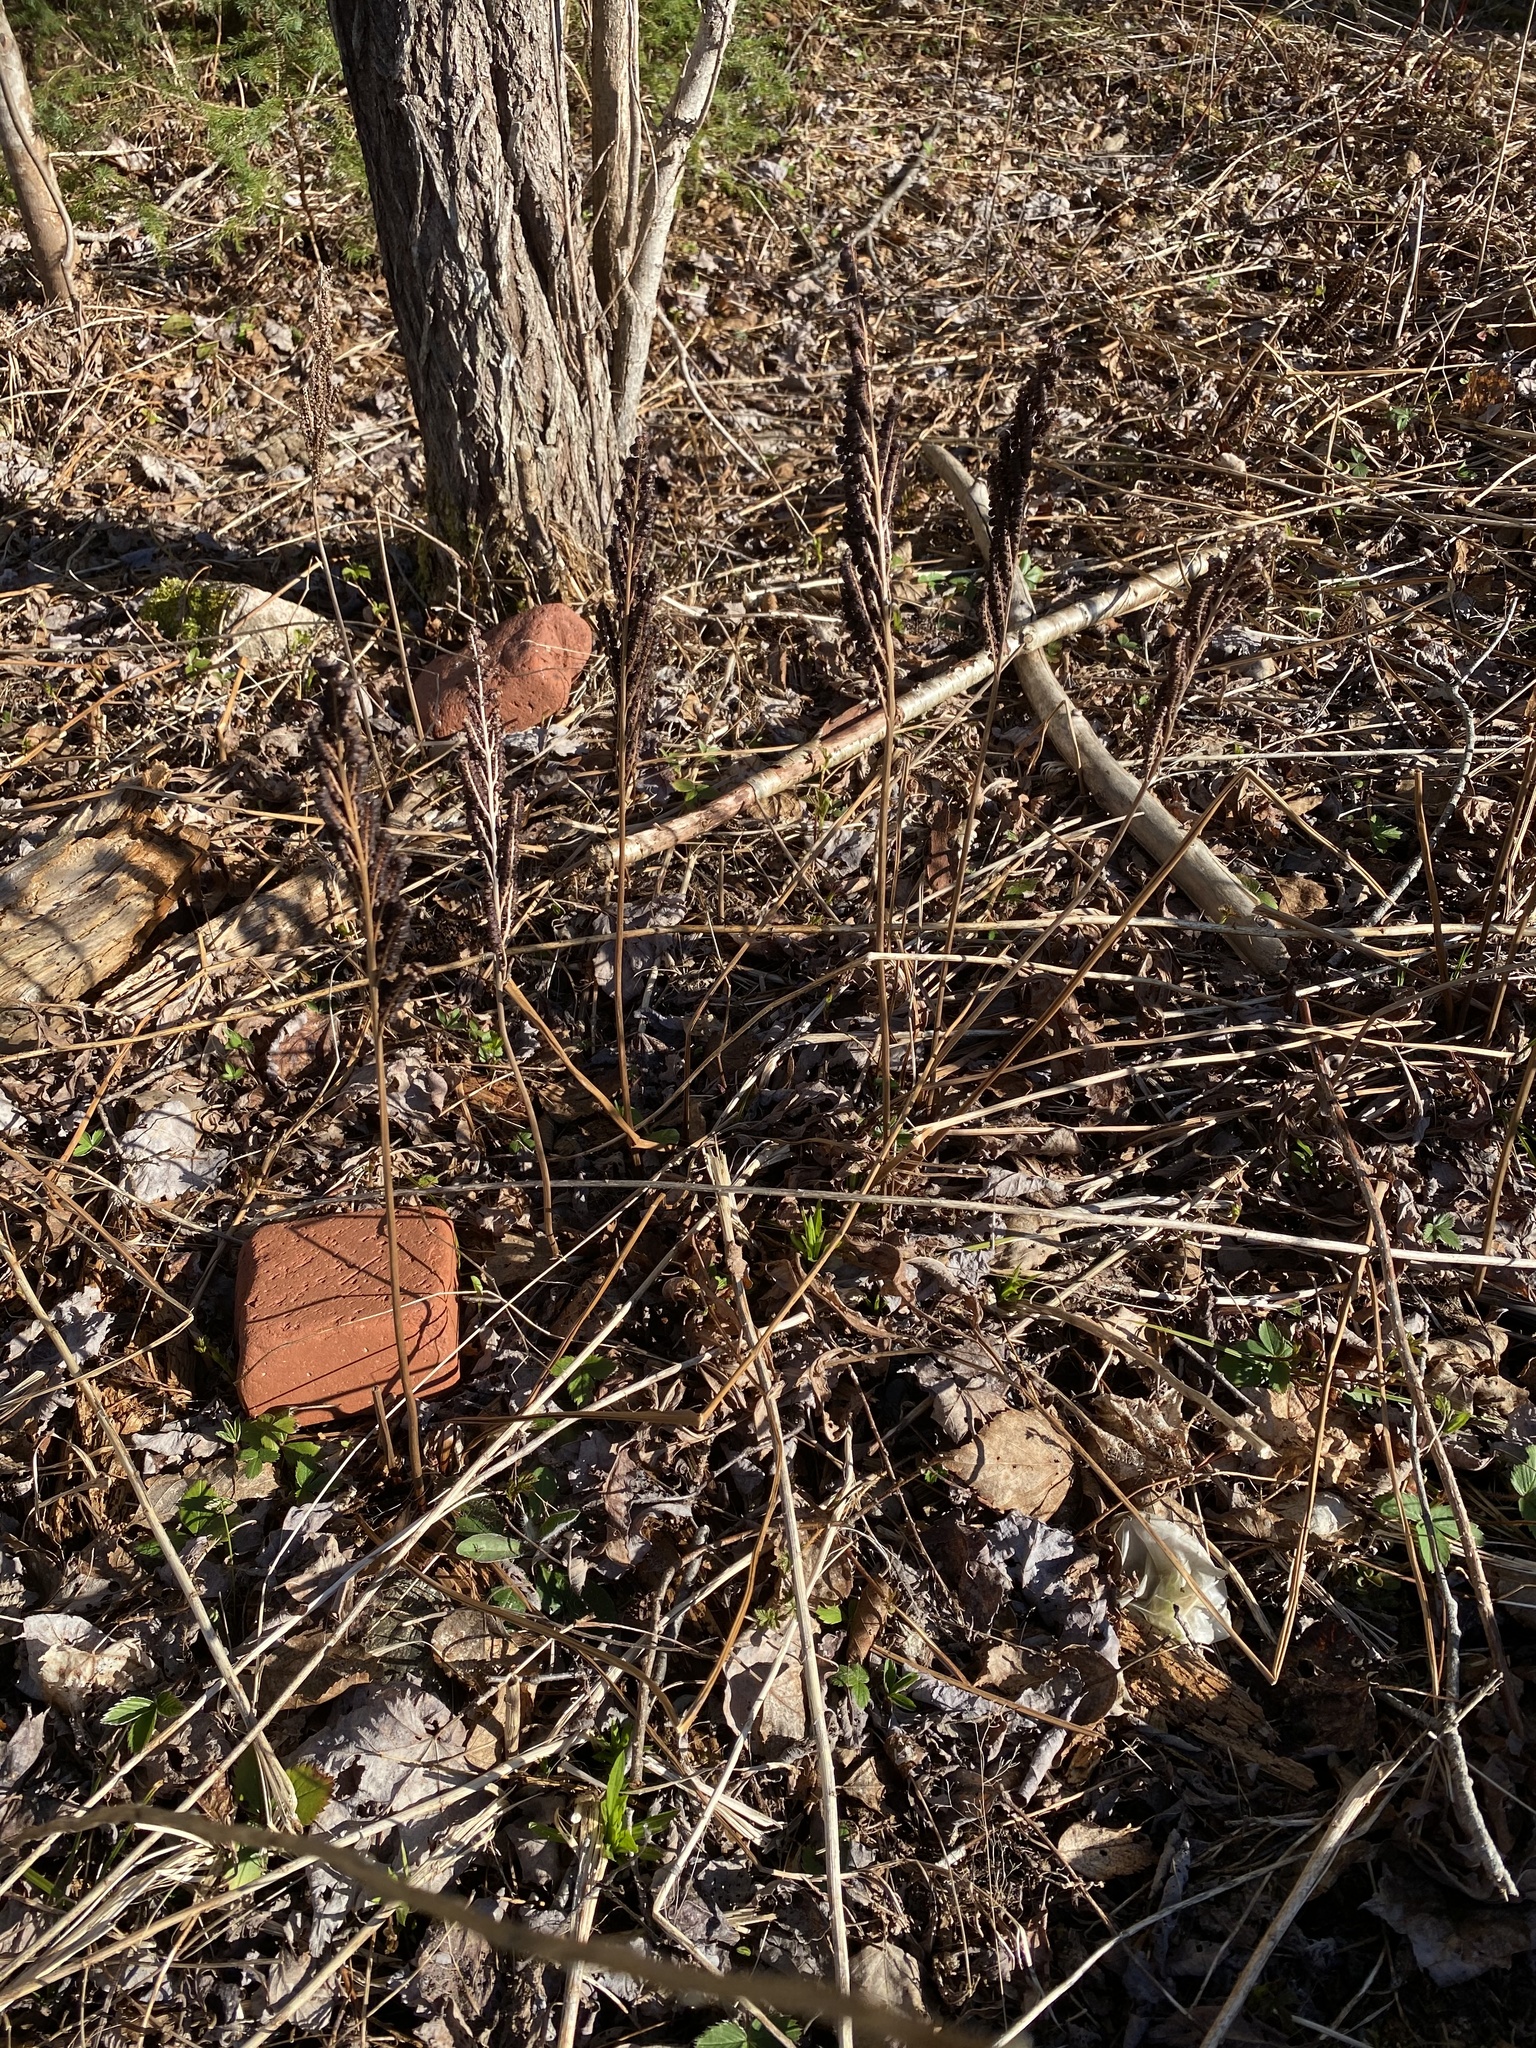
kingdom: Plantae
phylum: Tracheophyta
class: Polypodiopsida
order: Polypodiales
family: Onocleaceae
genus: Onoclea
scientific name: Onoclea sensibilis
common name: Sensitive fern
